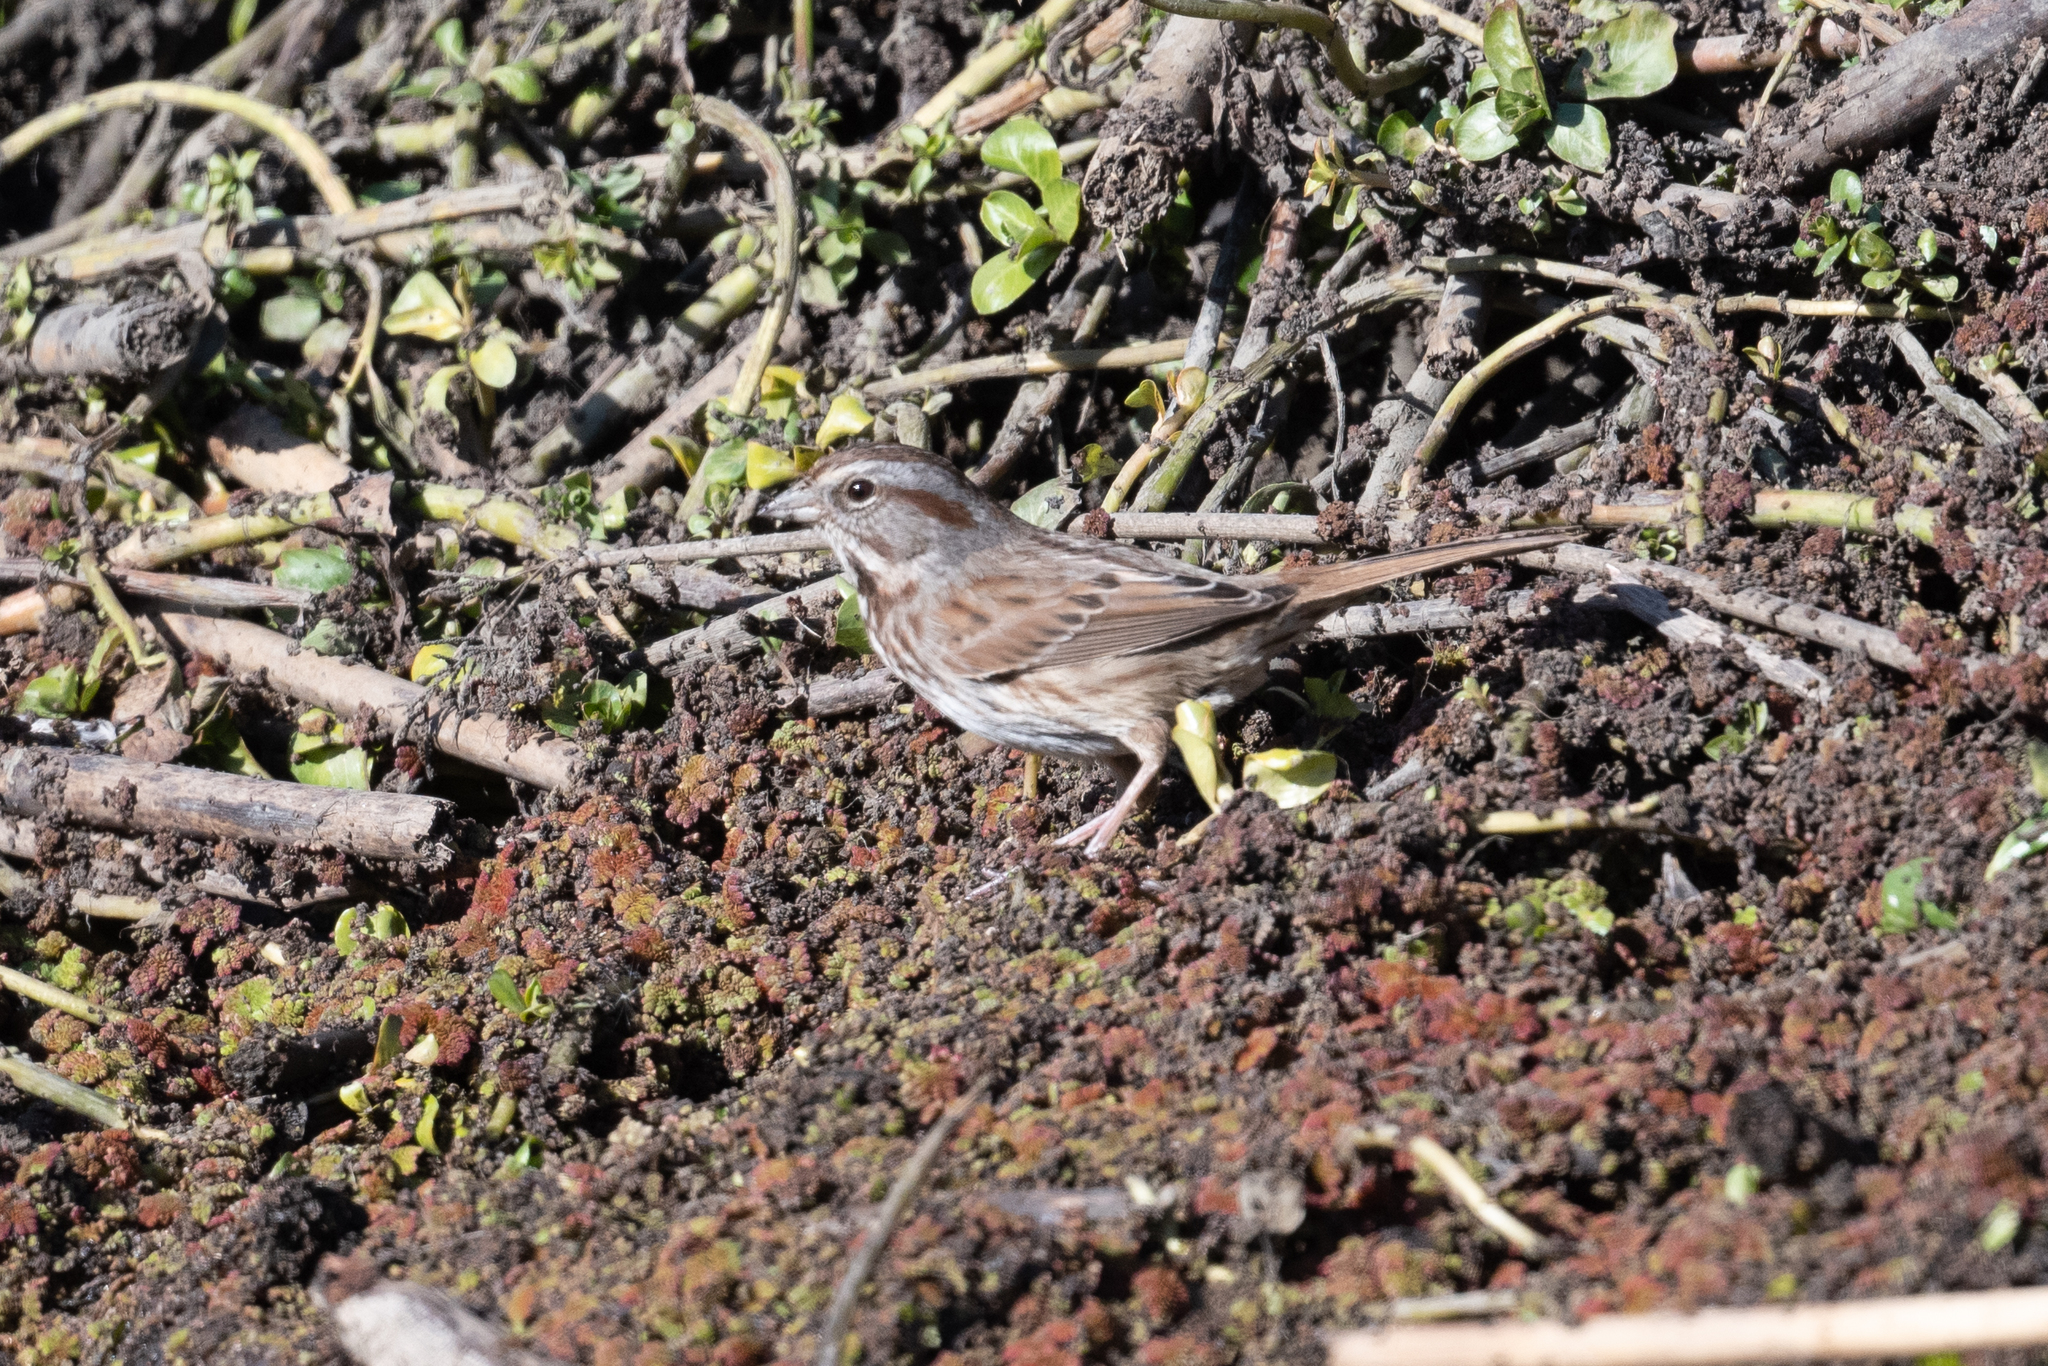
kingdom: Animalia
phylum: Chordata
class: Aves
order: Passeriformes
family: Passerellidae
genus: Melospiza
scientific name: Melospiza melodia
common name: Song sparrow
